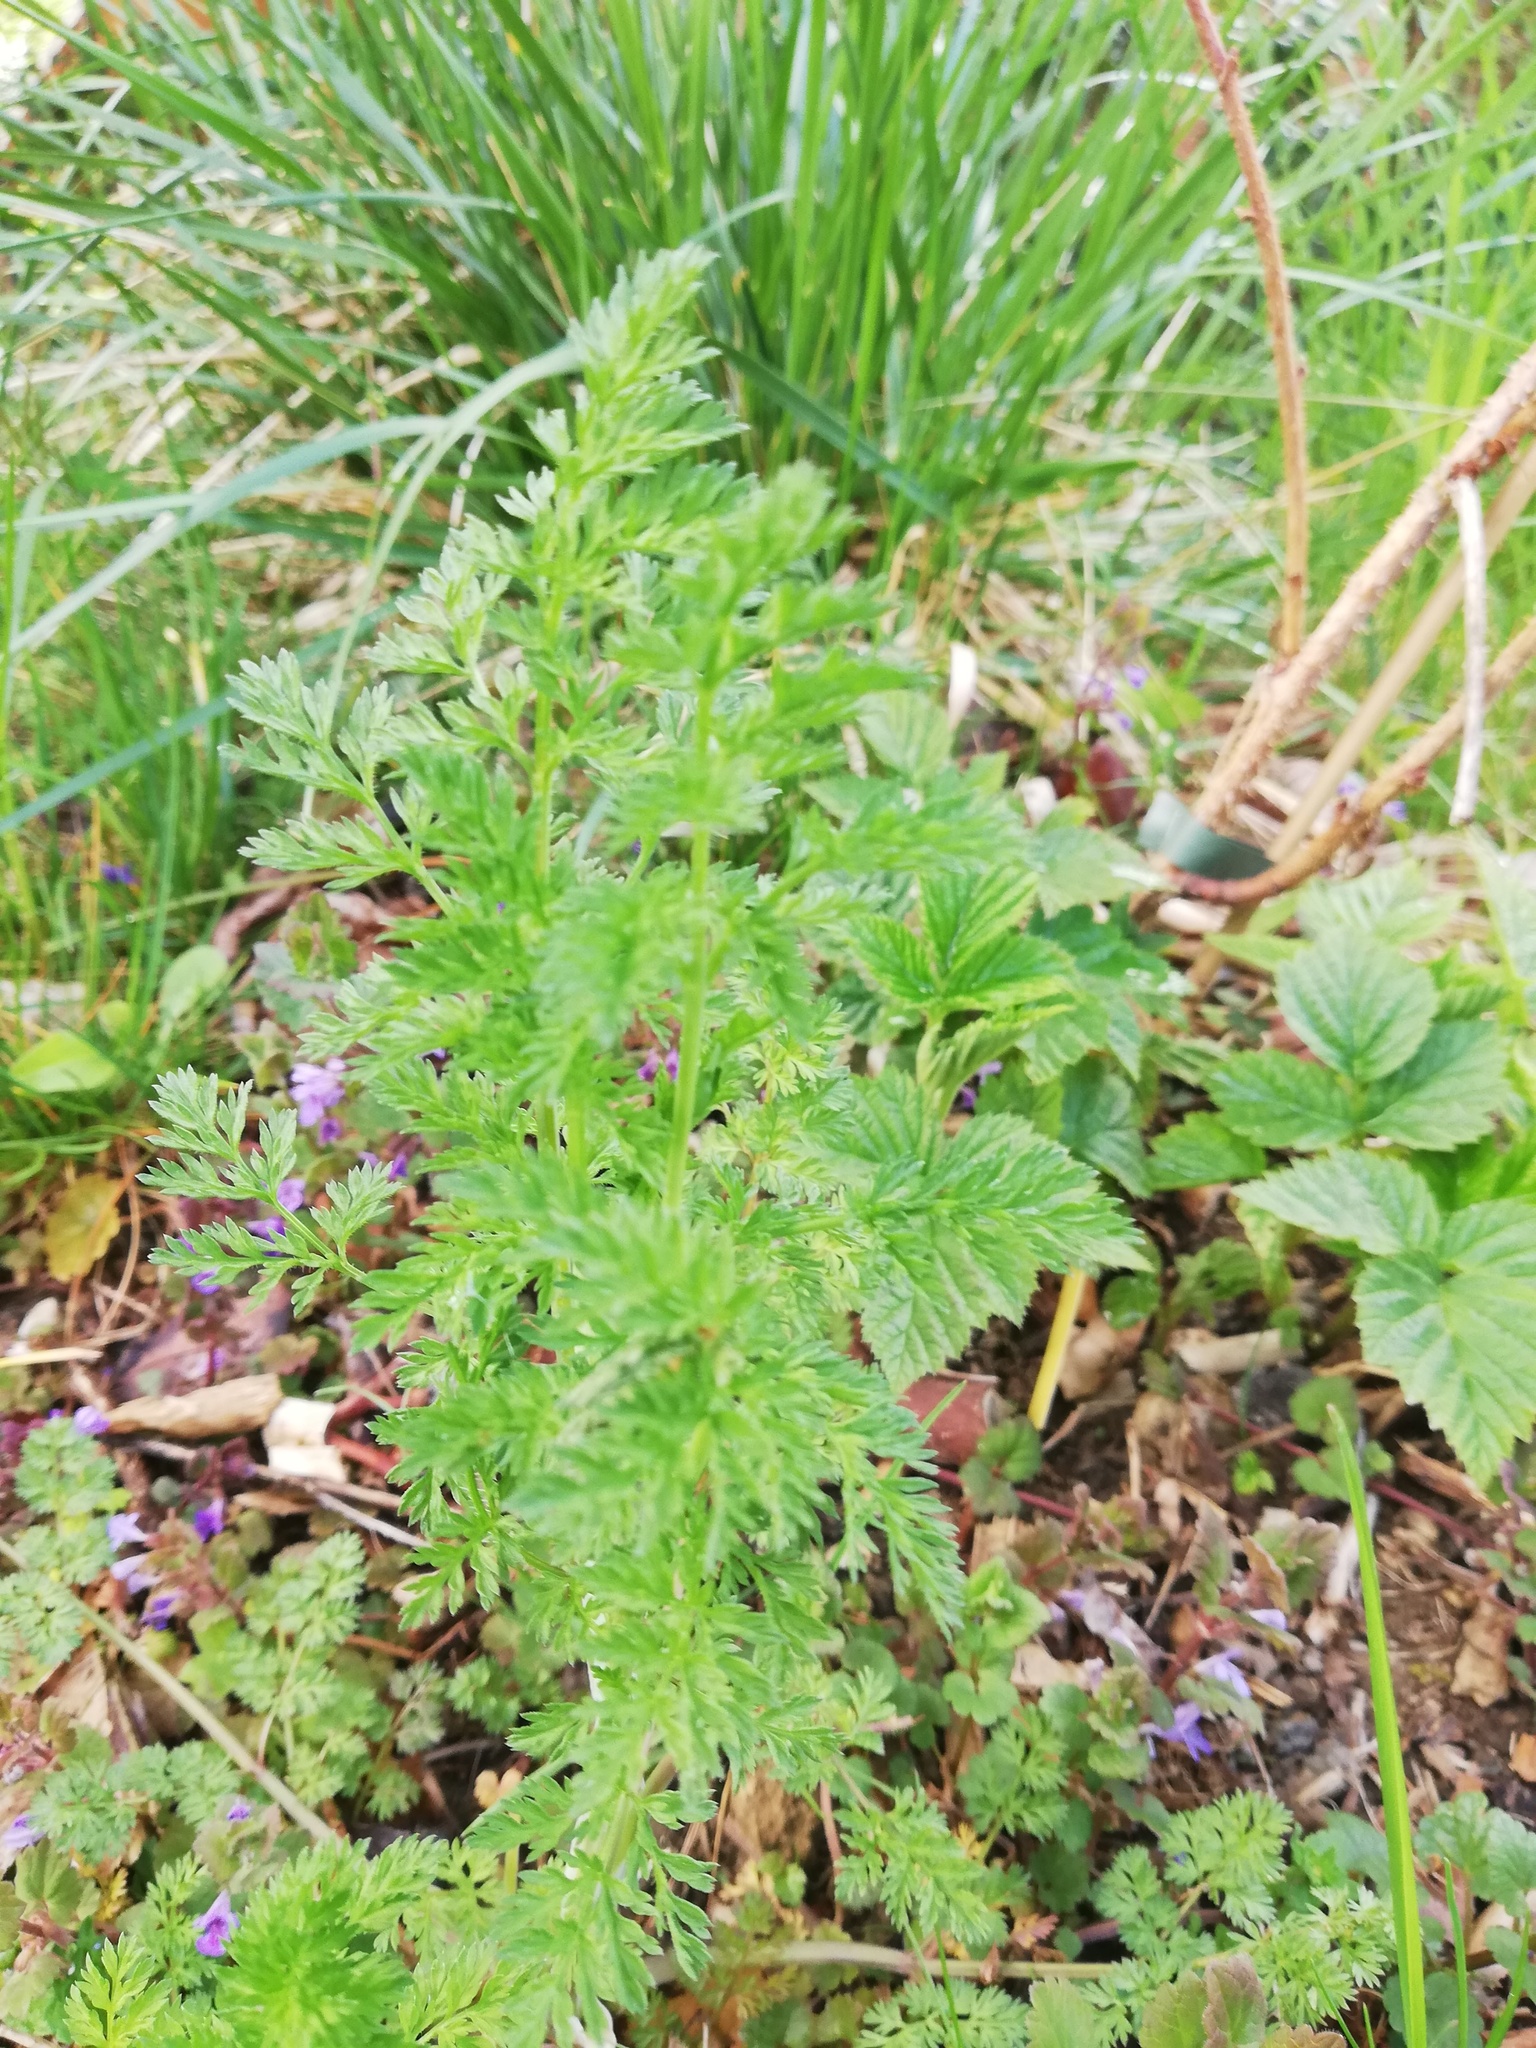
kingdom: Plantae
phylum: Tracheophyta
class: Magnoliopsida
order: Apiales
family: Apiaceae
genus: Daucus
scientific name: Daucus carota
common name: Wild carrot
